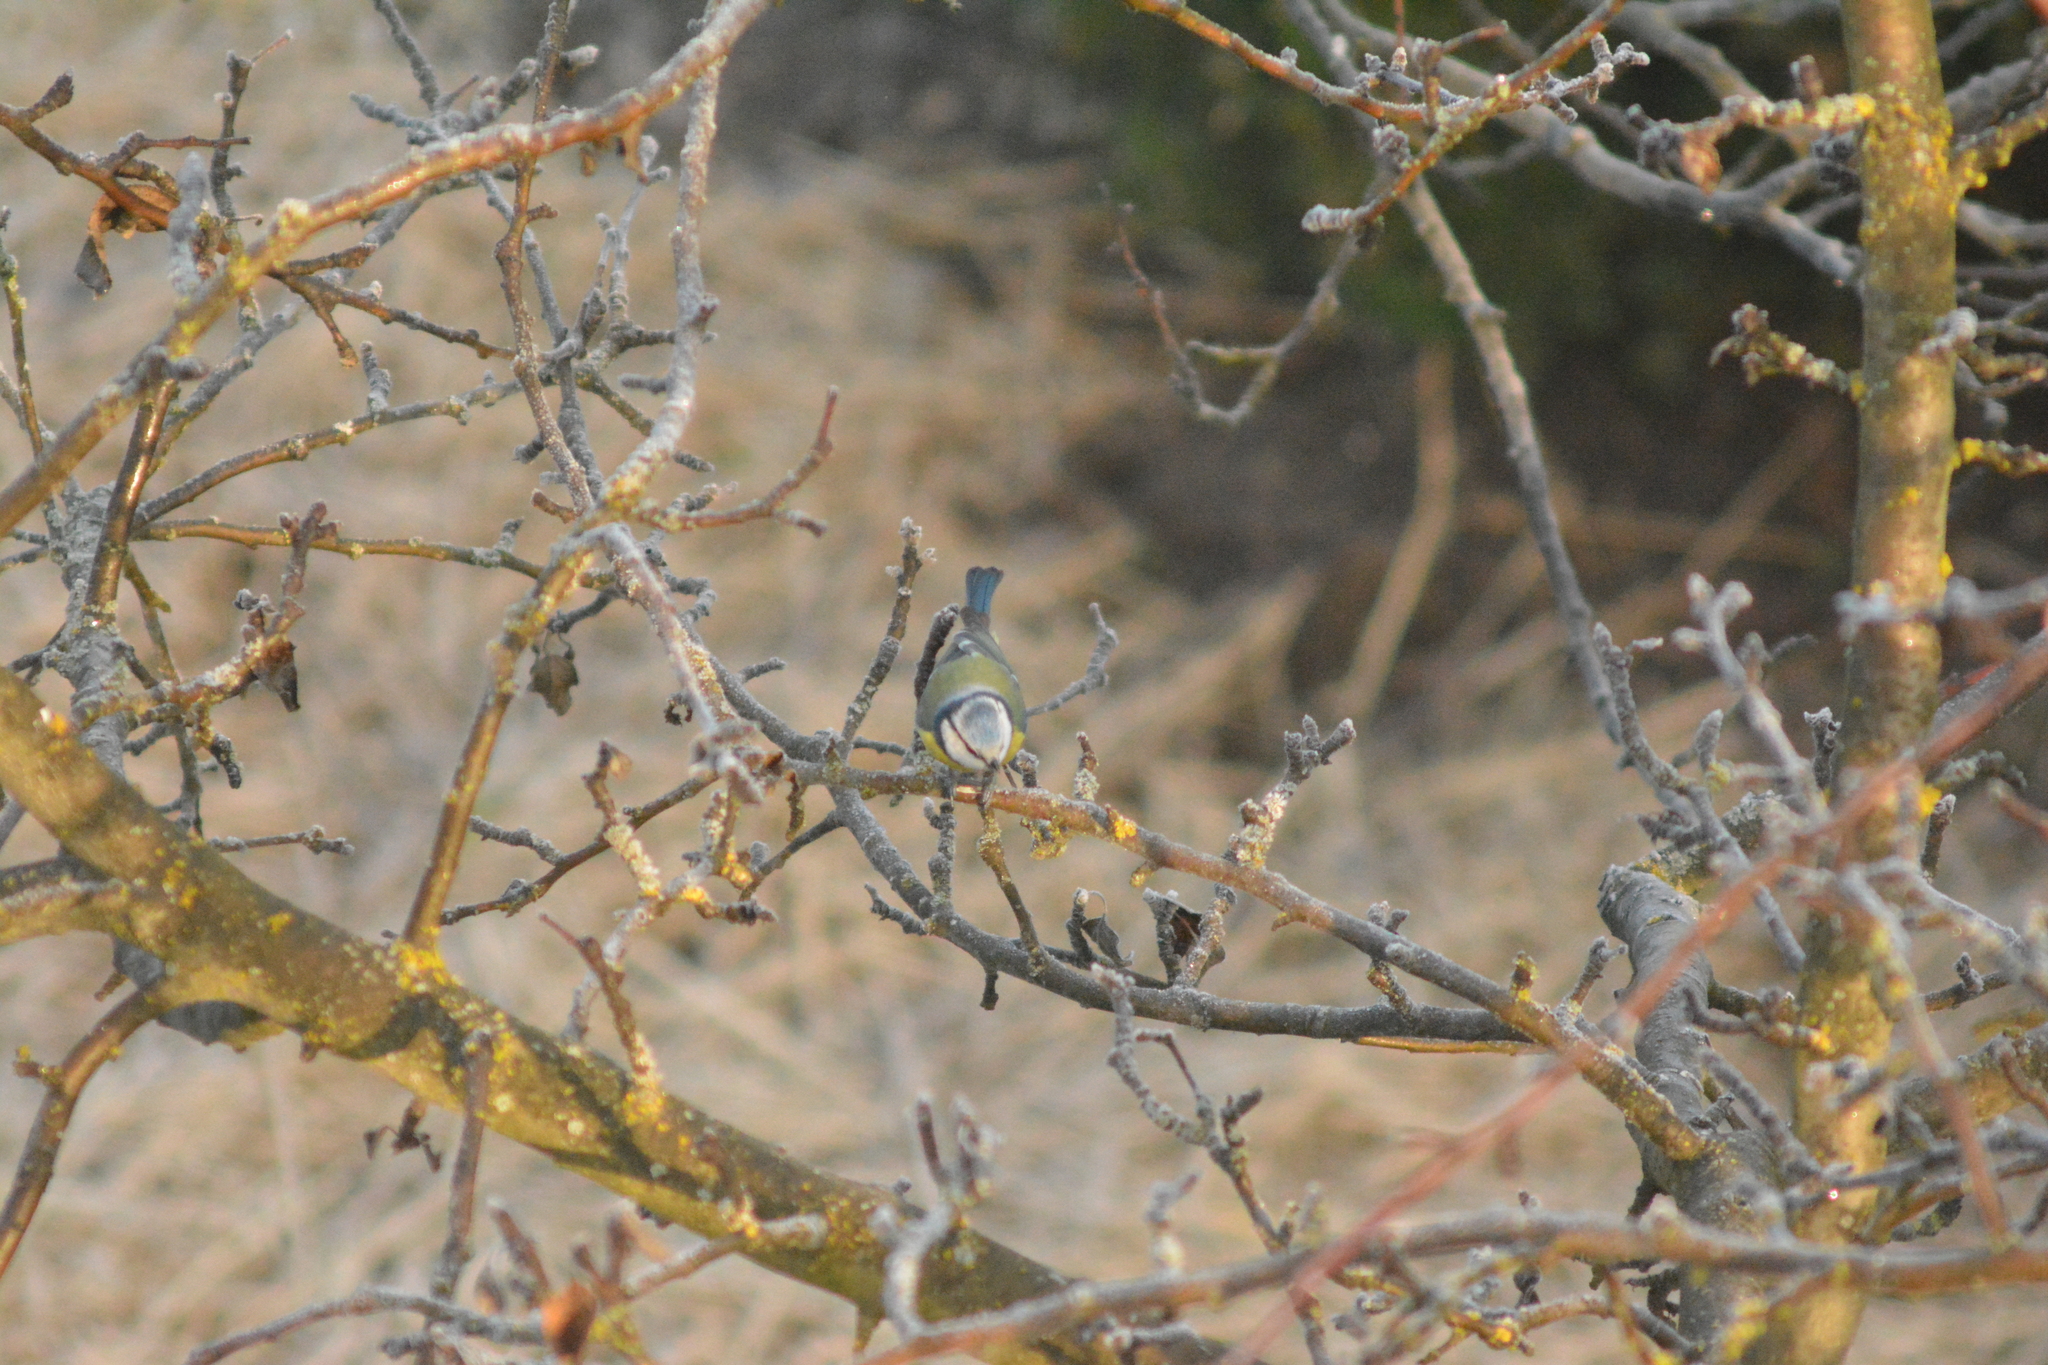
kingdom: Animalia
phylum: Chordata
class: Aves
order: Passeriformes
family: Paridae
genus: Cyanistes
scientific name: Cyanistes caeruleus
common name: Eurasian blue tit
